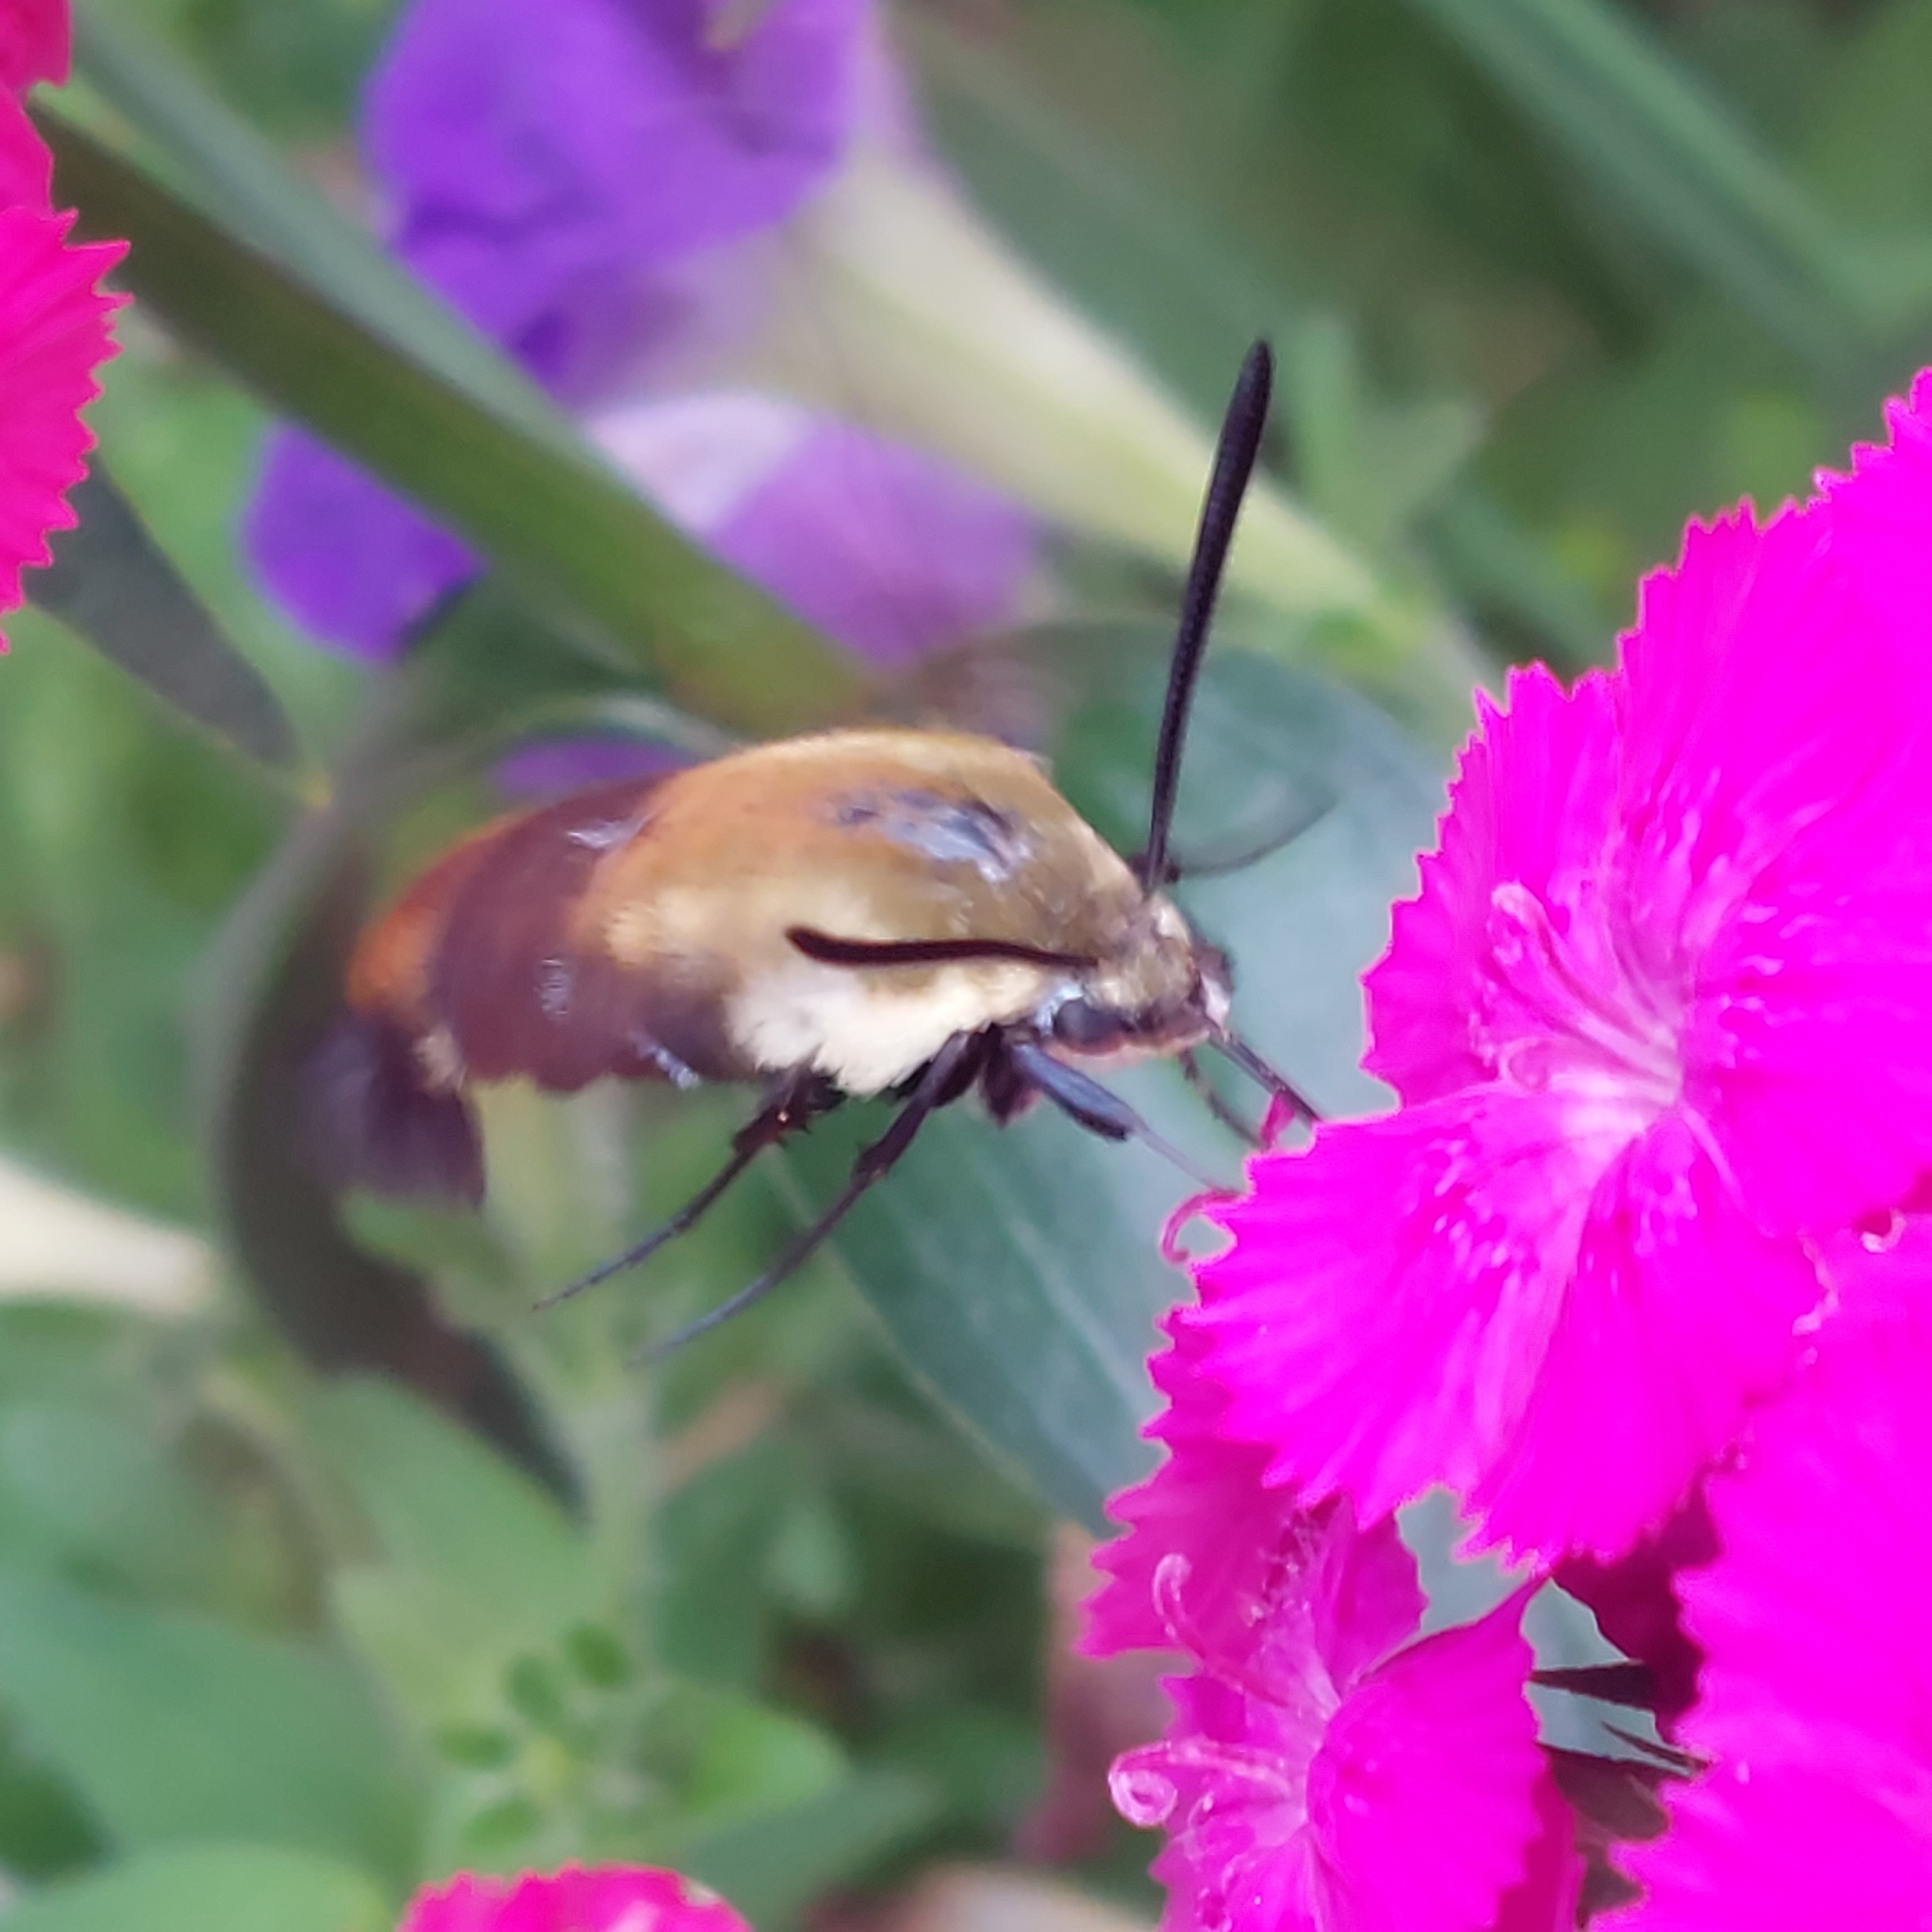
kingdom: Animalia
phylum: Arthropoda
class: Insecta
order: Lepidoptera
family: Sphingidae
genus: Hemaris
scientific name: Hemaris diffinis
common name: Bumblebee moth
